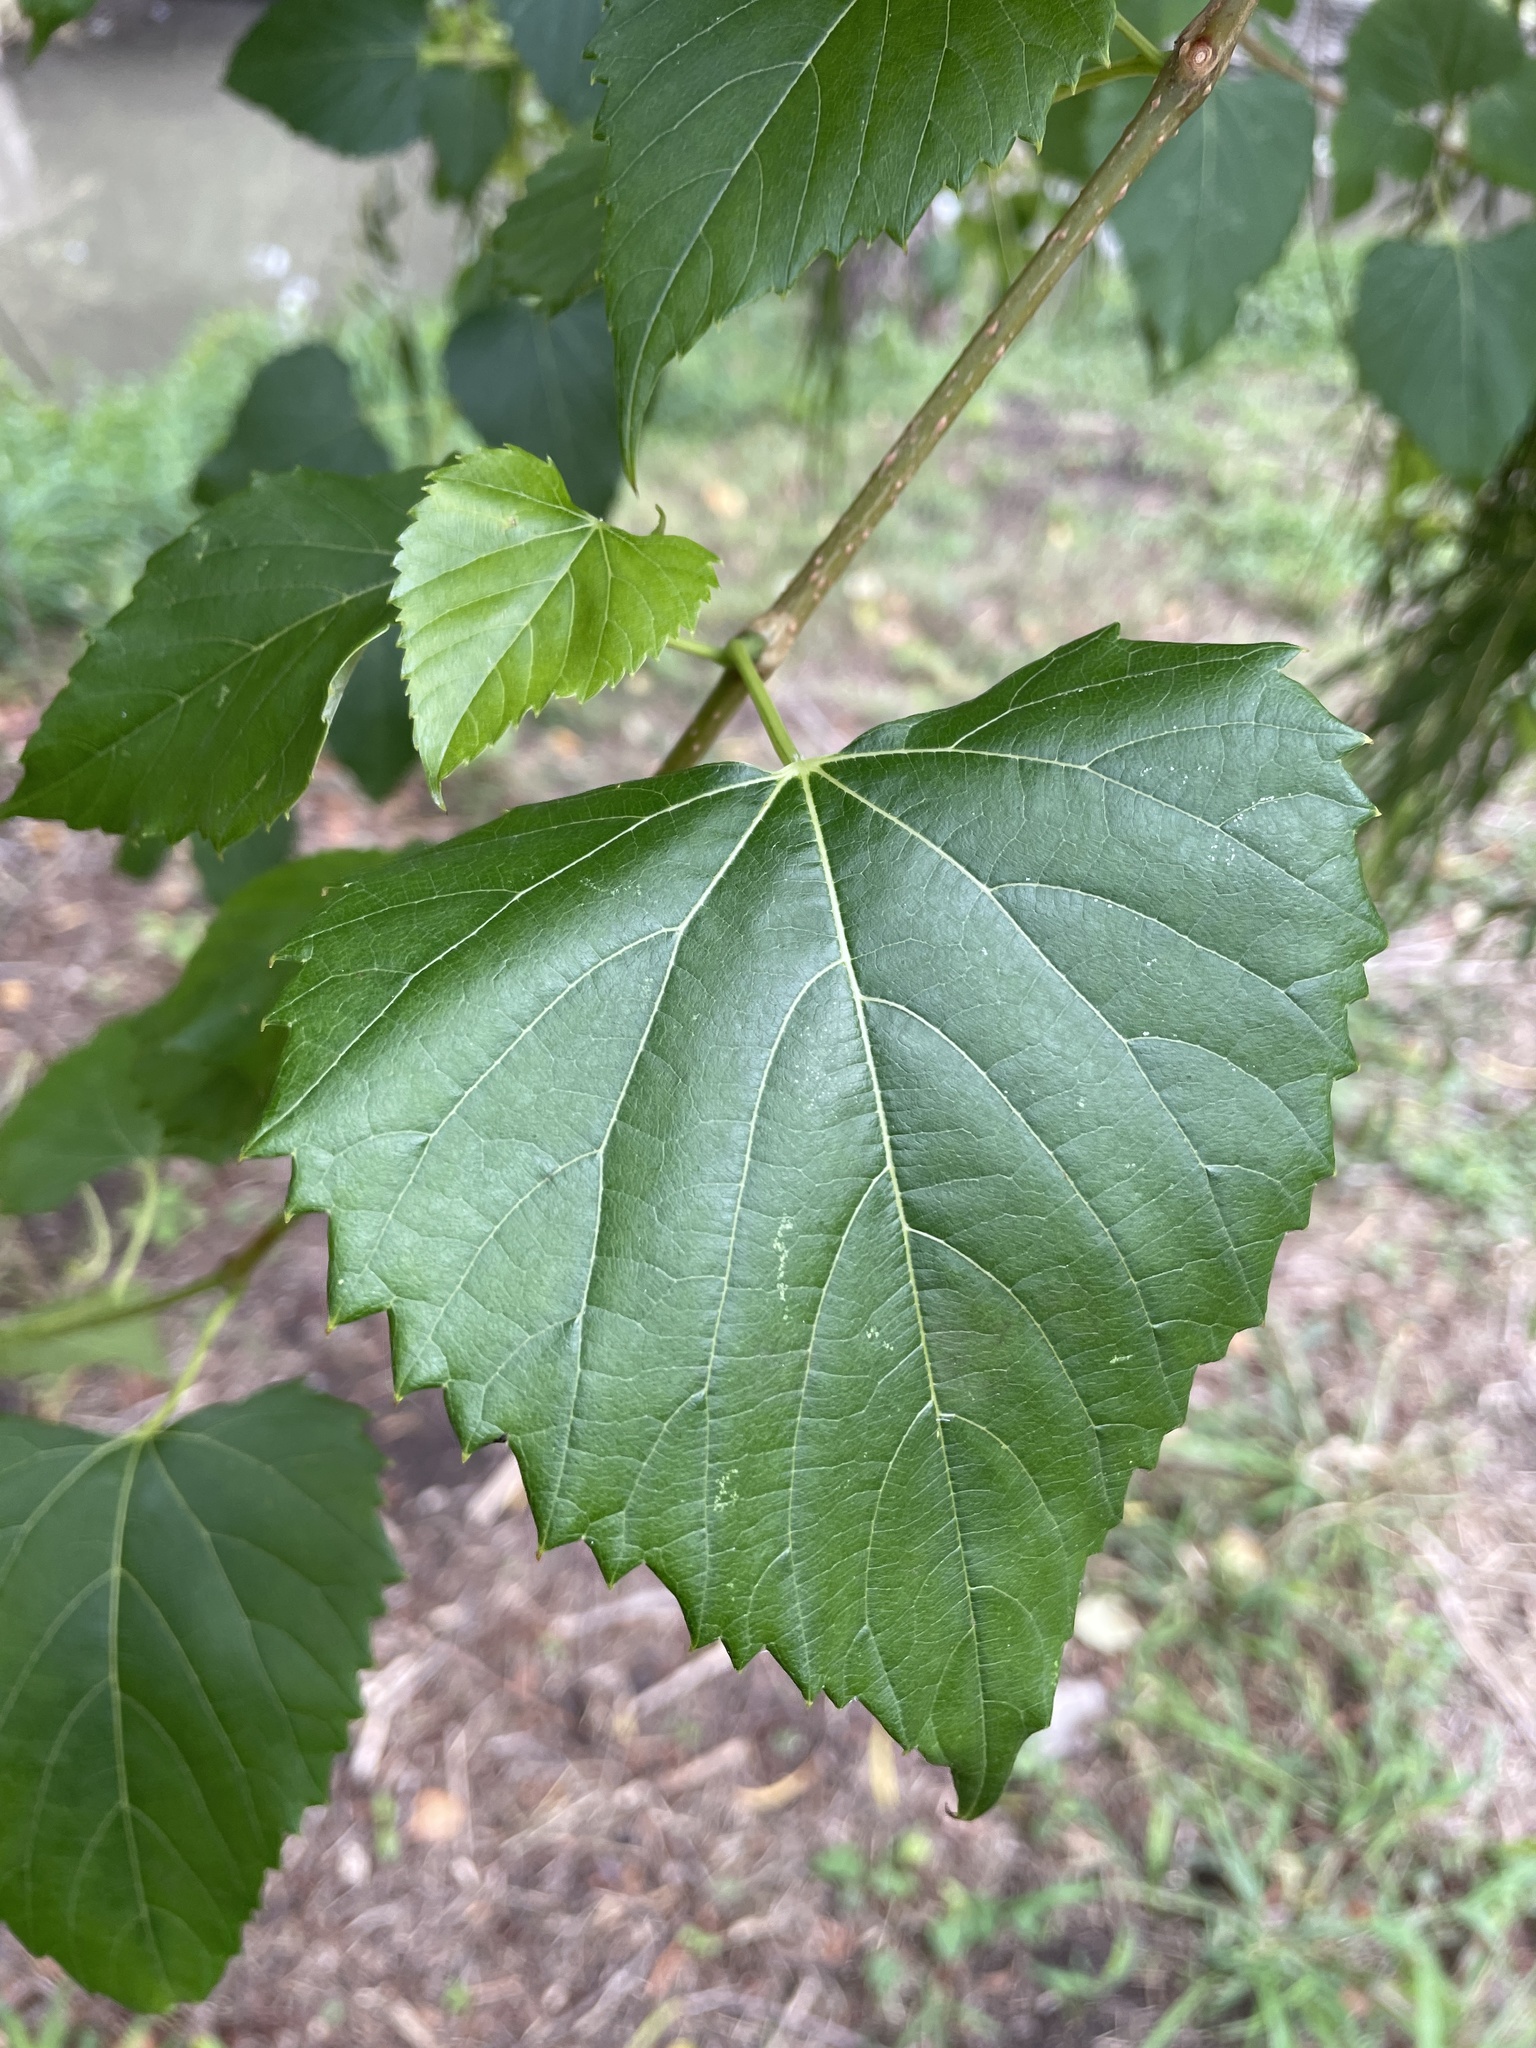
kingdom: Plantae
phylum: Tracheophyta
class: Magnoliopsida
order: Vitales
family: Vitaceae
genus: Ampelopsis
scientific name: Ampelopsis cordata
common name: Heart-leaf ampelopsis
